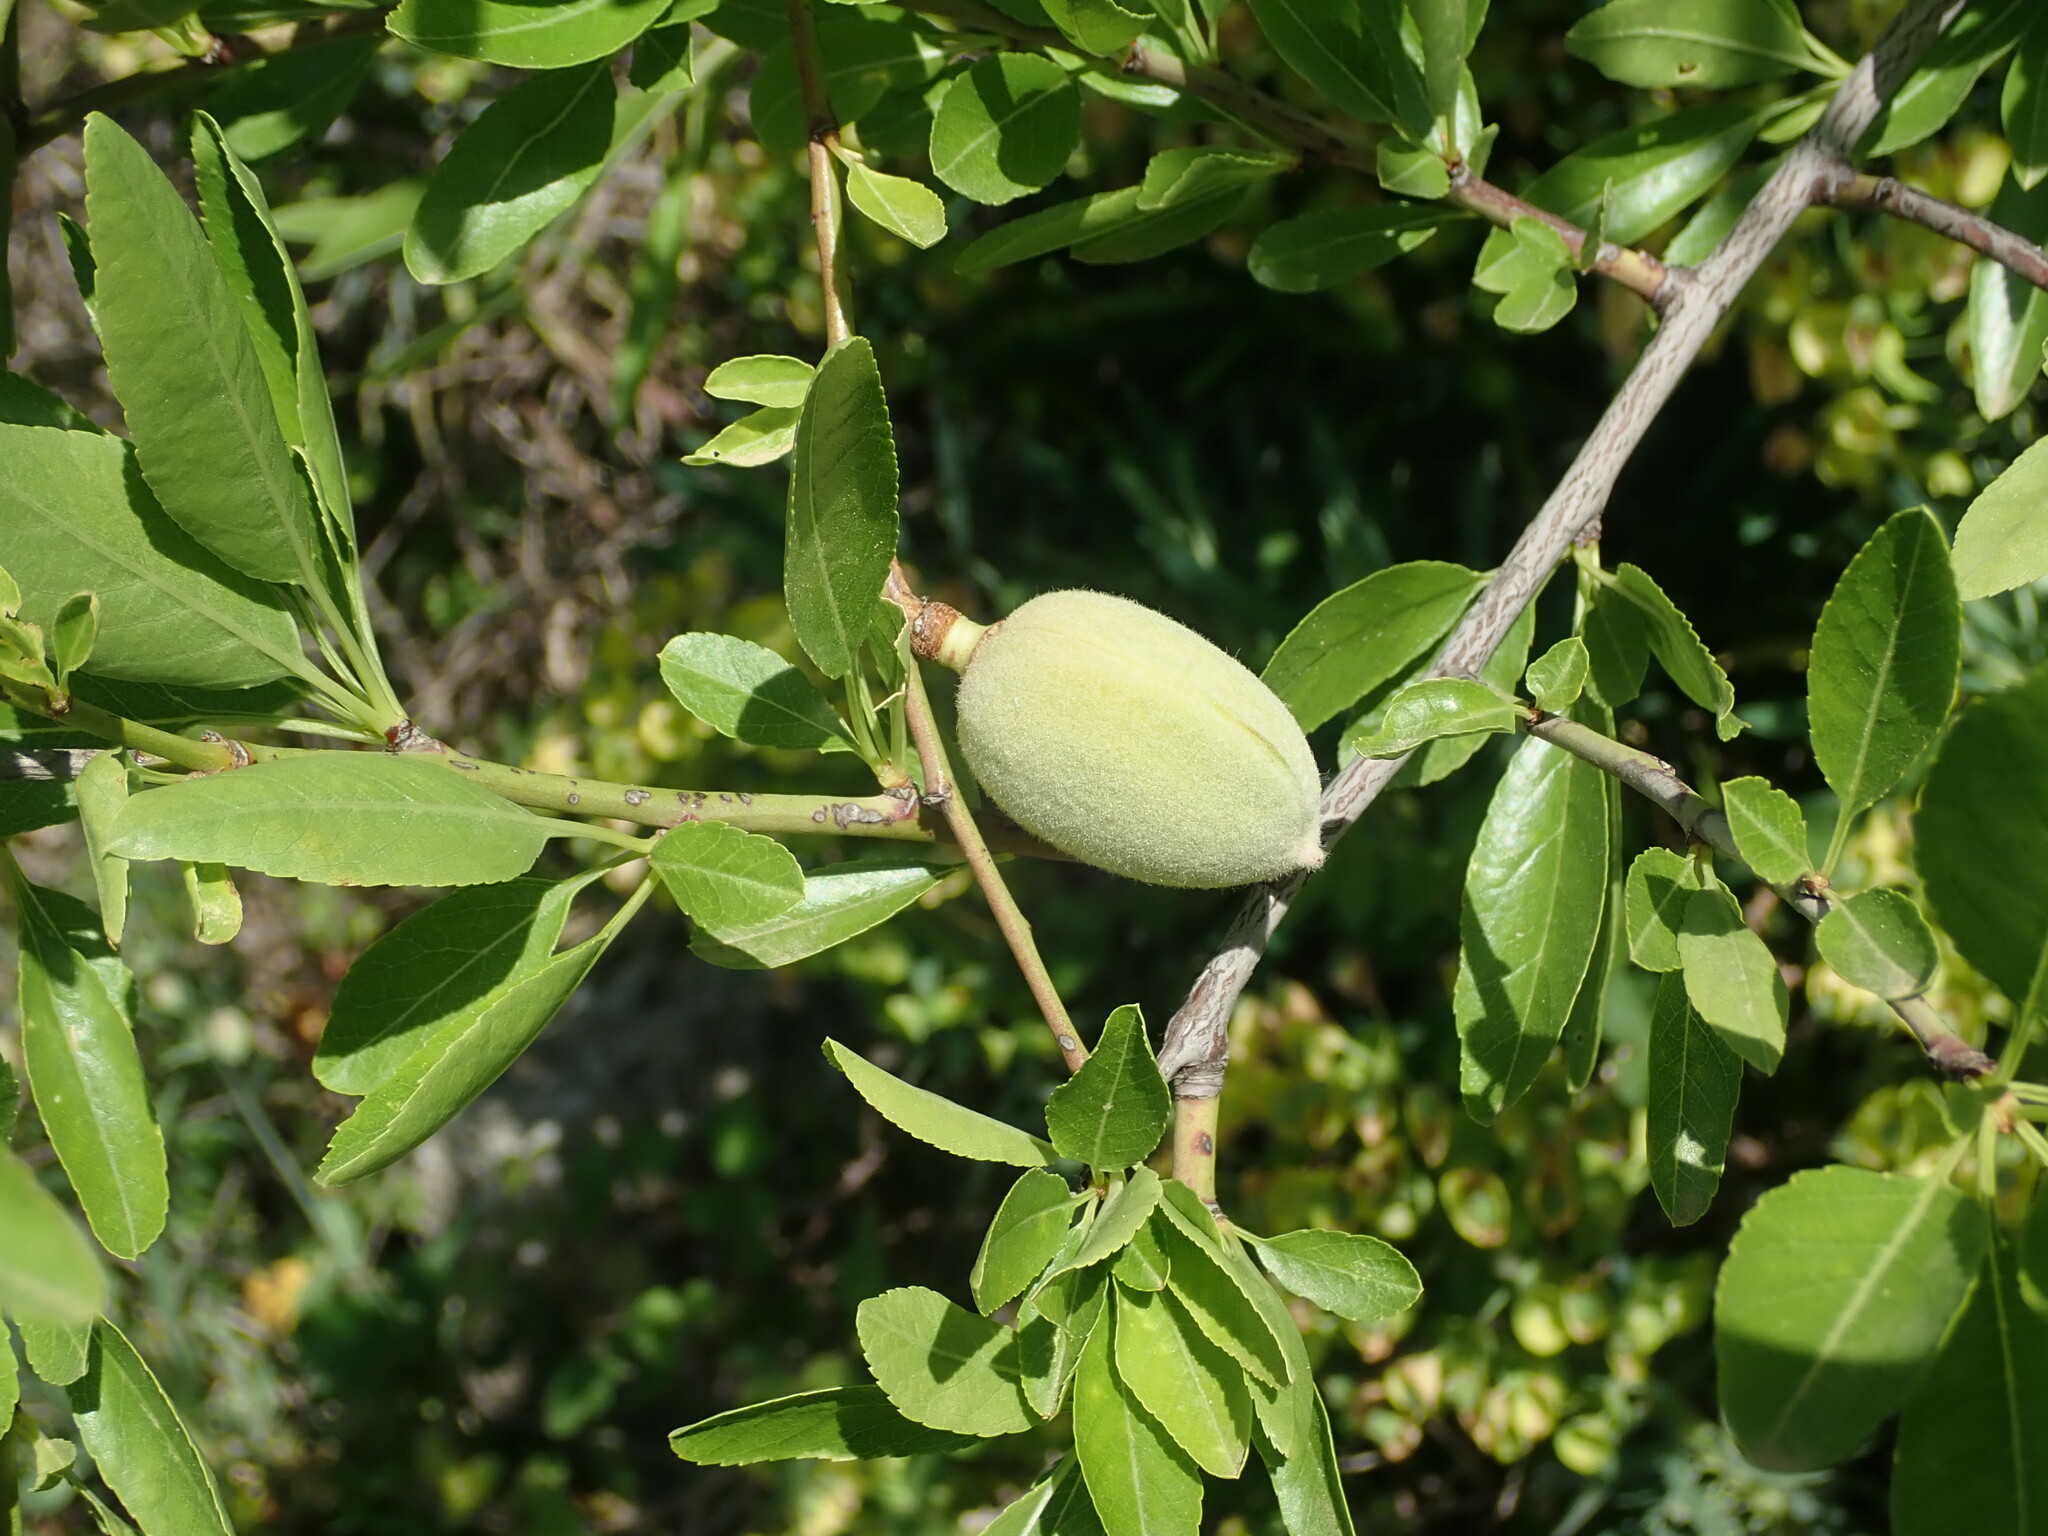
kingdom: Plantae
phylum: Tracheophyta
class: Magnoliopsida
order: Rosales
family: Rosaceae
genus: Prunus
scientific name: Prunus amygdalus
